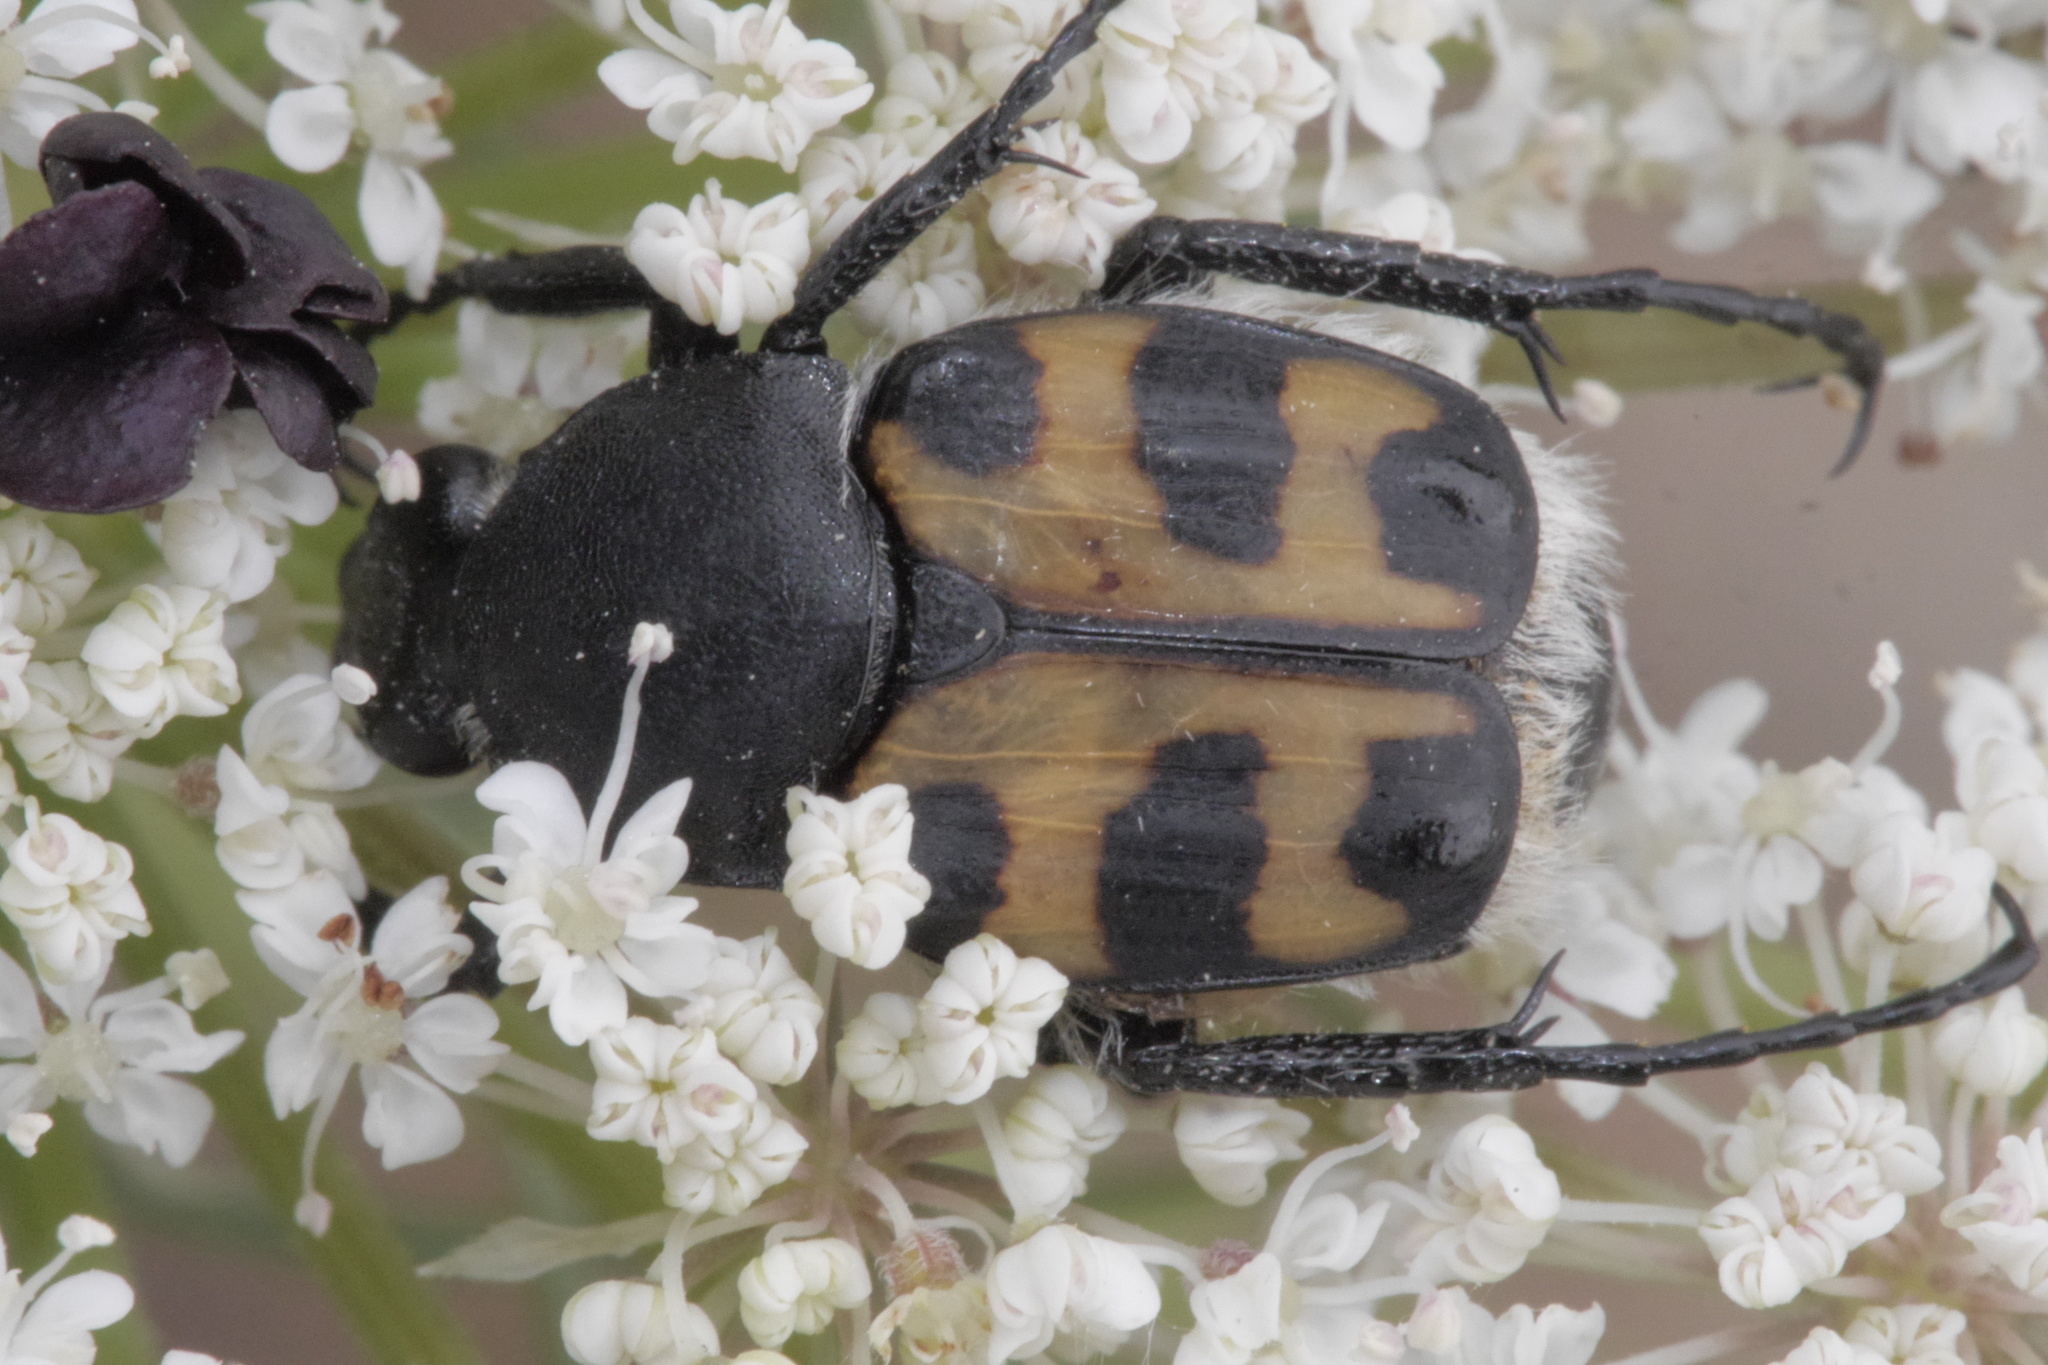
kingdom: Animalia
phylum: Arthropoda
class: Insecta
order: Coleoptera
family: Scarabaeidae
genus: Trichius
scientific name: Trichius gallicus
